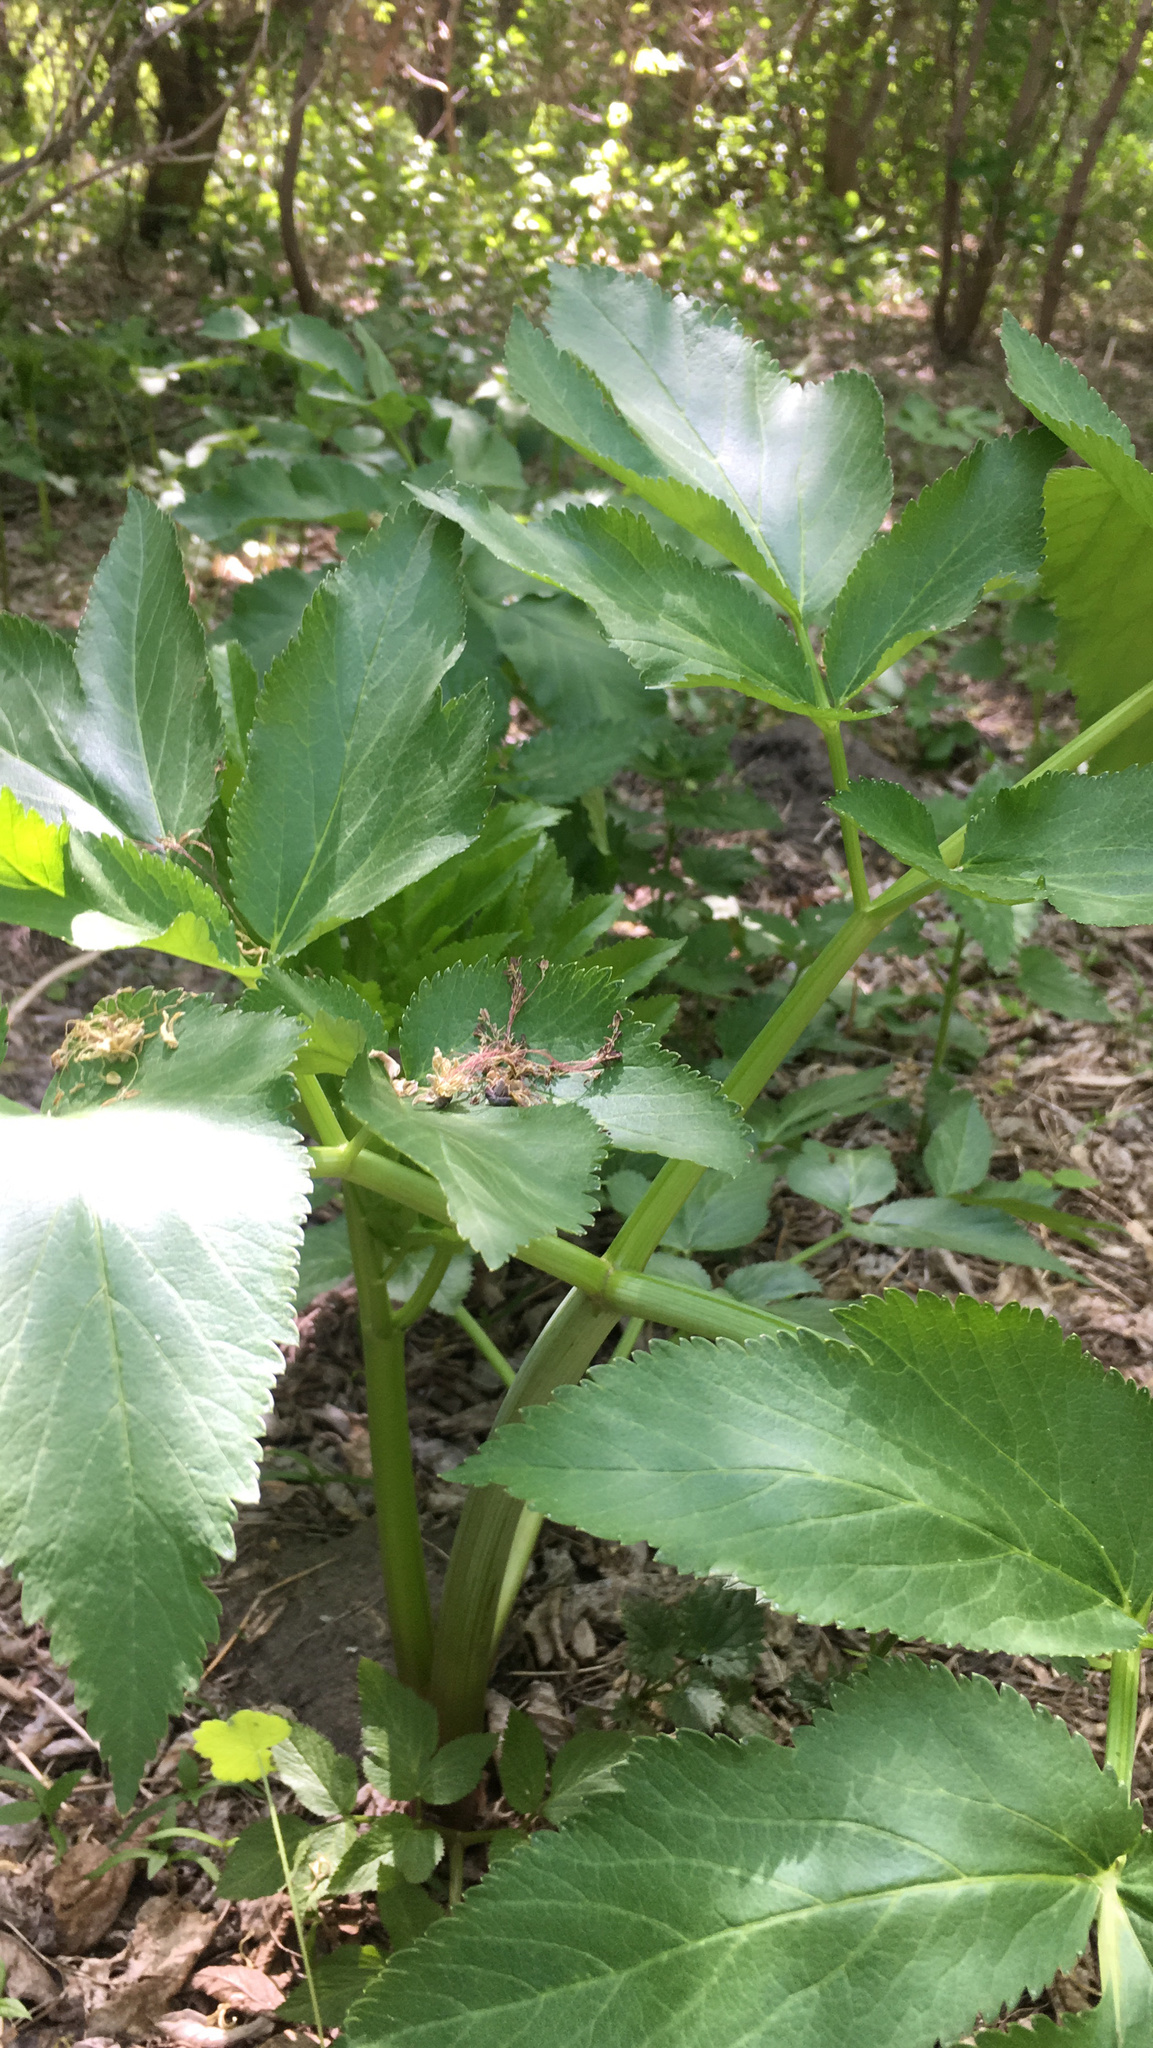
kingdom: Plantae
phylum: Tracheophyta
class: Magnoliopsida
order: Apiales
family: Apiaceae
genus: Angelica
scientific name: Angelica archangelica
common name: Garden angelica
